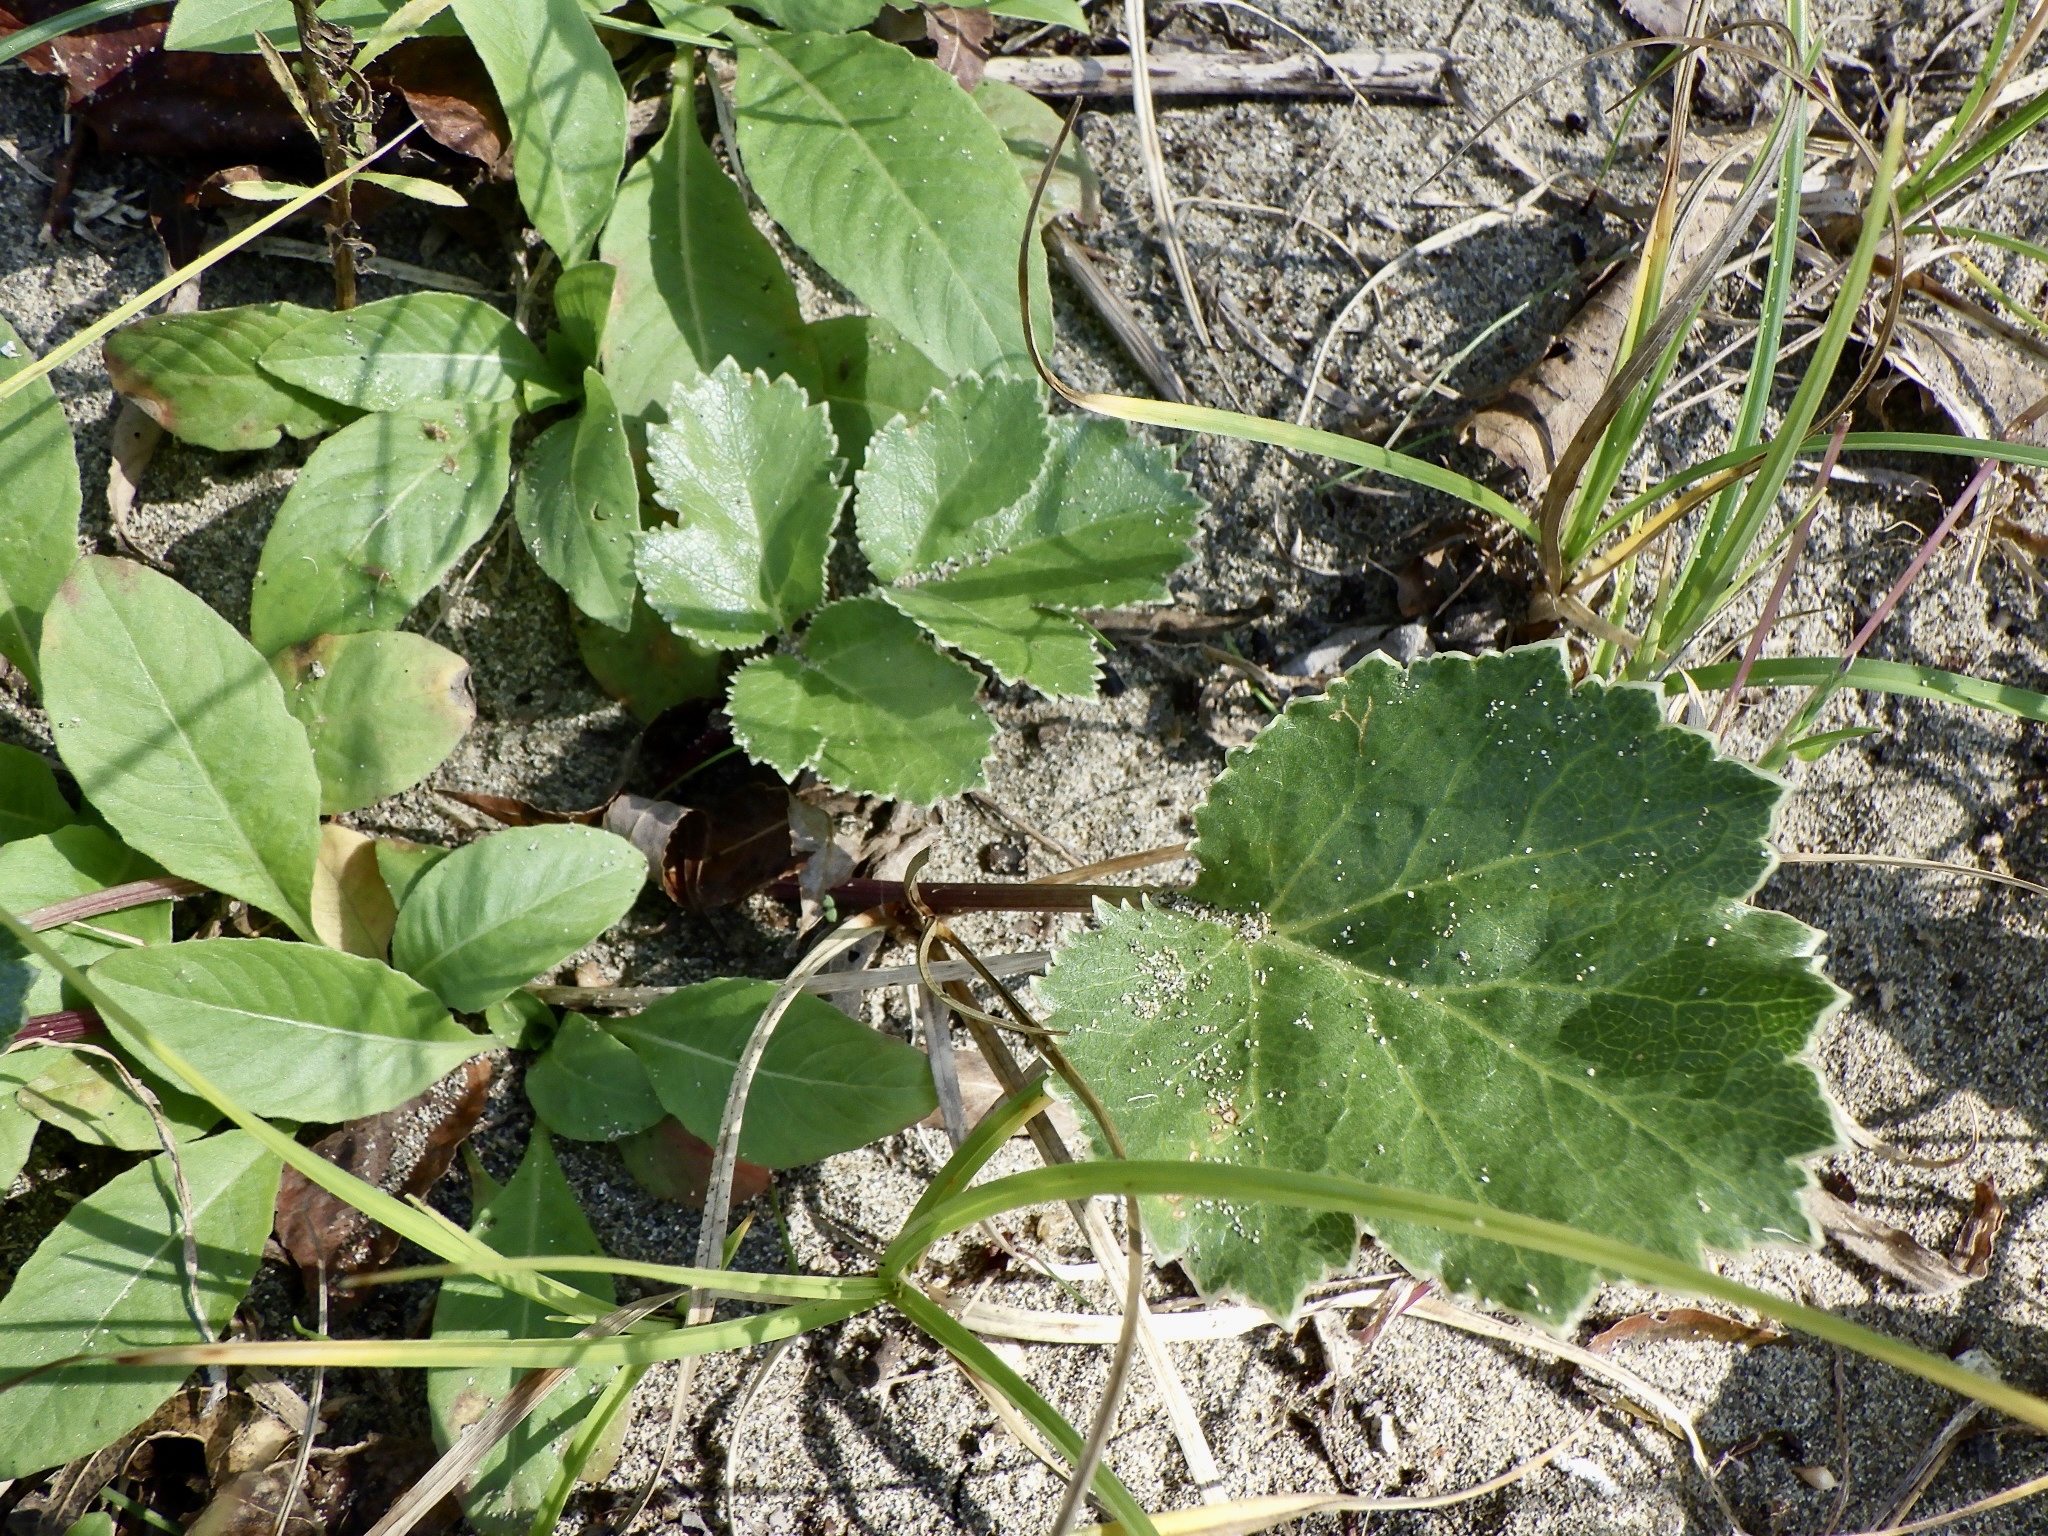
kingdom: Plantae
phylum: Tracheophyta
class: Magnoliopsida
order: Apiales
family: Apiaceae
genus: Glehnia
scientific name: Glehnia littoralis
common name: Beach silvertop
